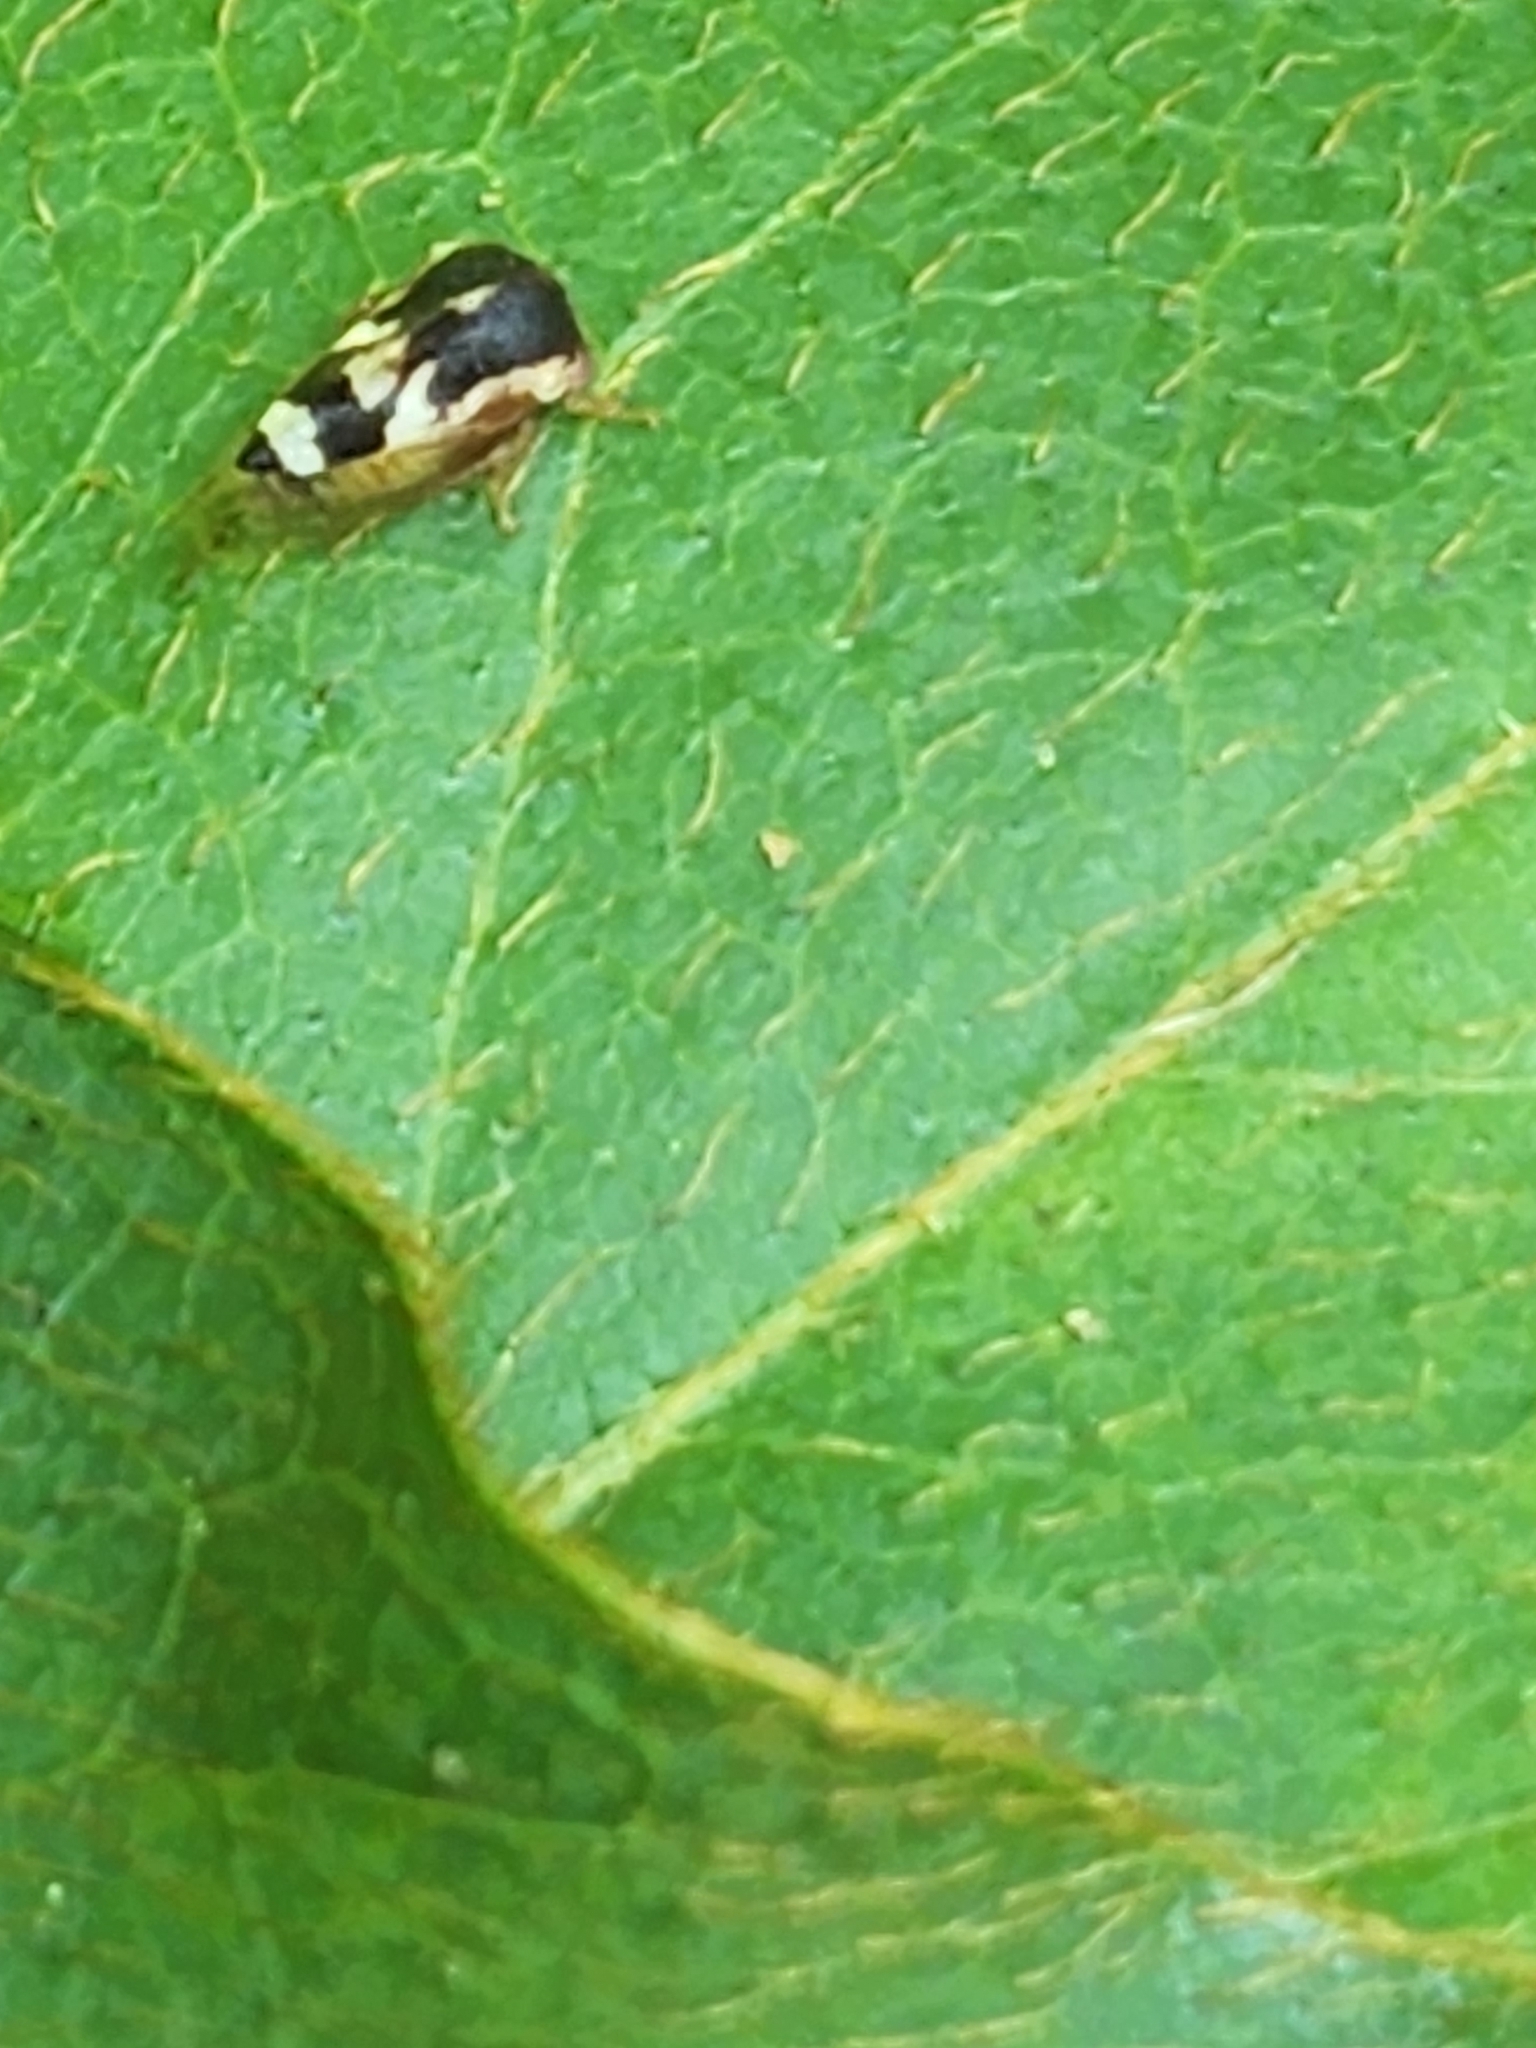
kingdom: Animalia
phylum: Arthropoda
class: Insecta
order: Hemiptera
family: Membracidae
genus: Cyrtolobus
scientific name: Cyrtolobus togatus
